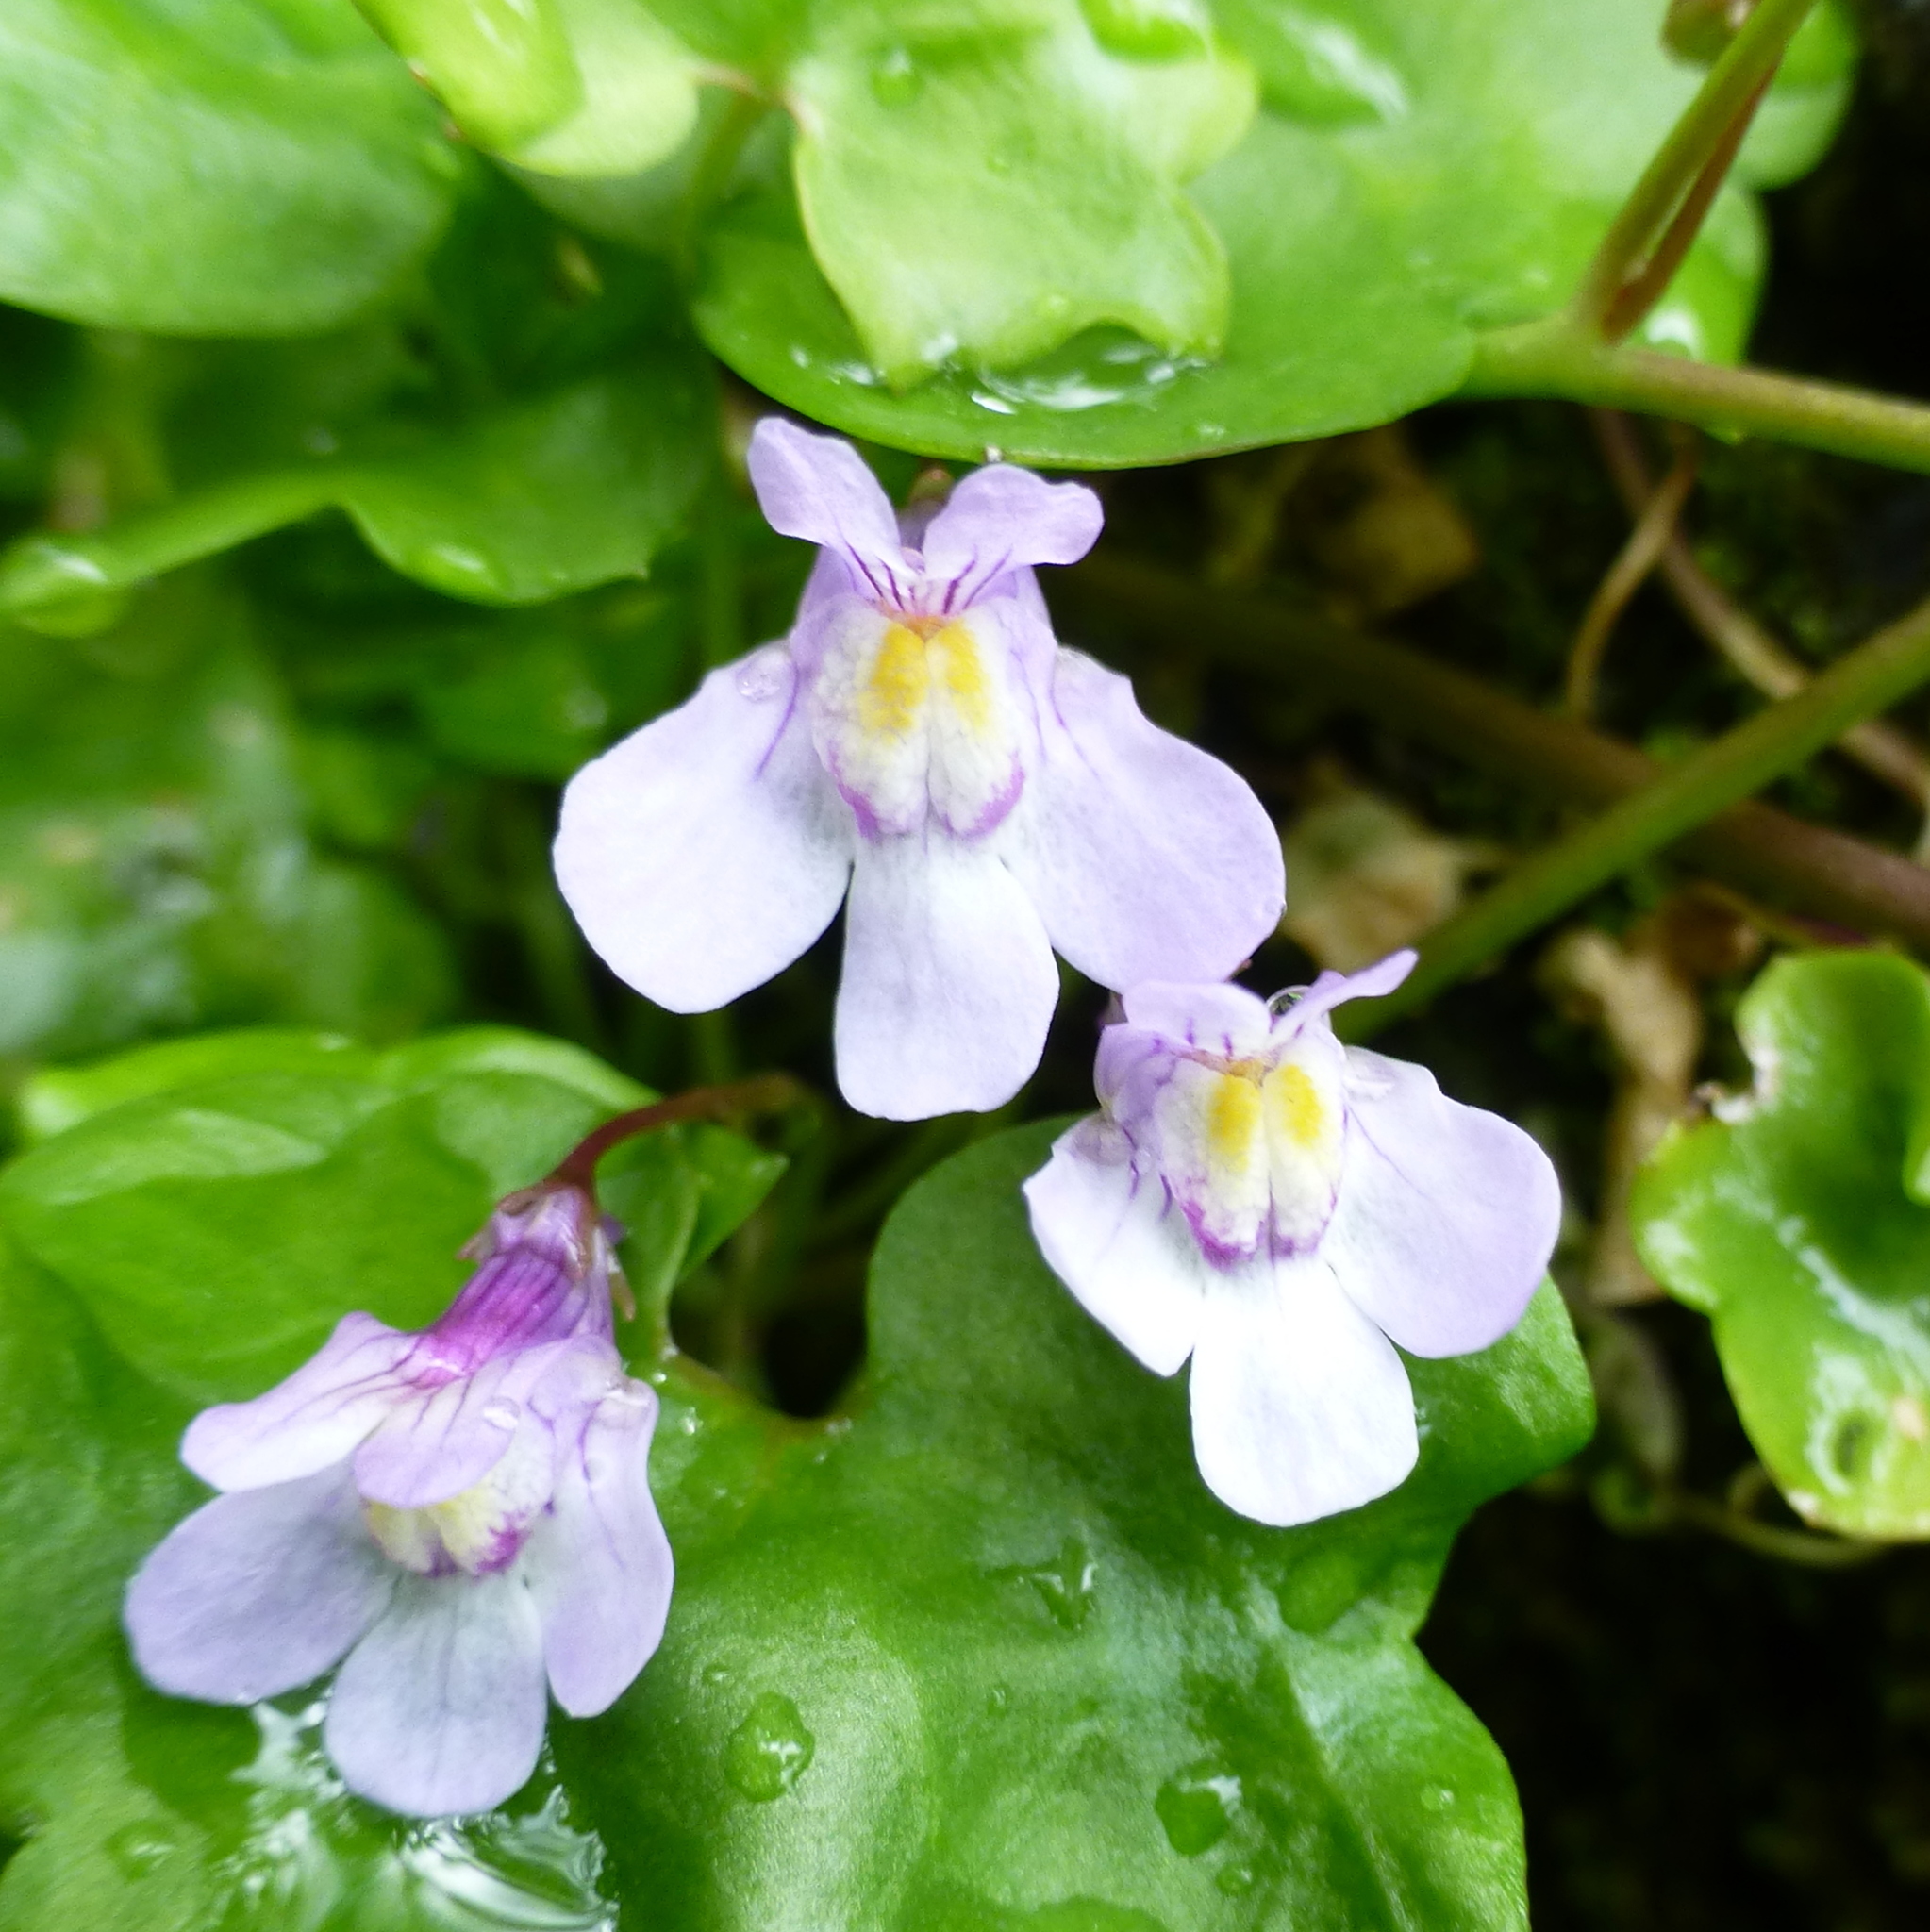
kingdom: Plantae
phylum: Tracheophyta
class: Magnoliopsida
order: Lamiales
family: Plantaginaceae
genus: Cymbalaria
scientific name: Cymbalaria muralis
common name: Ivy-leaved toadflax
